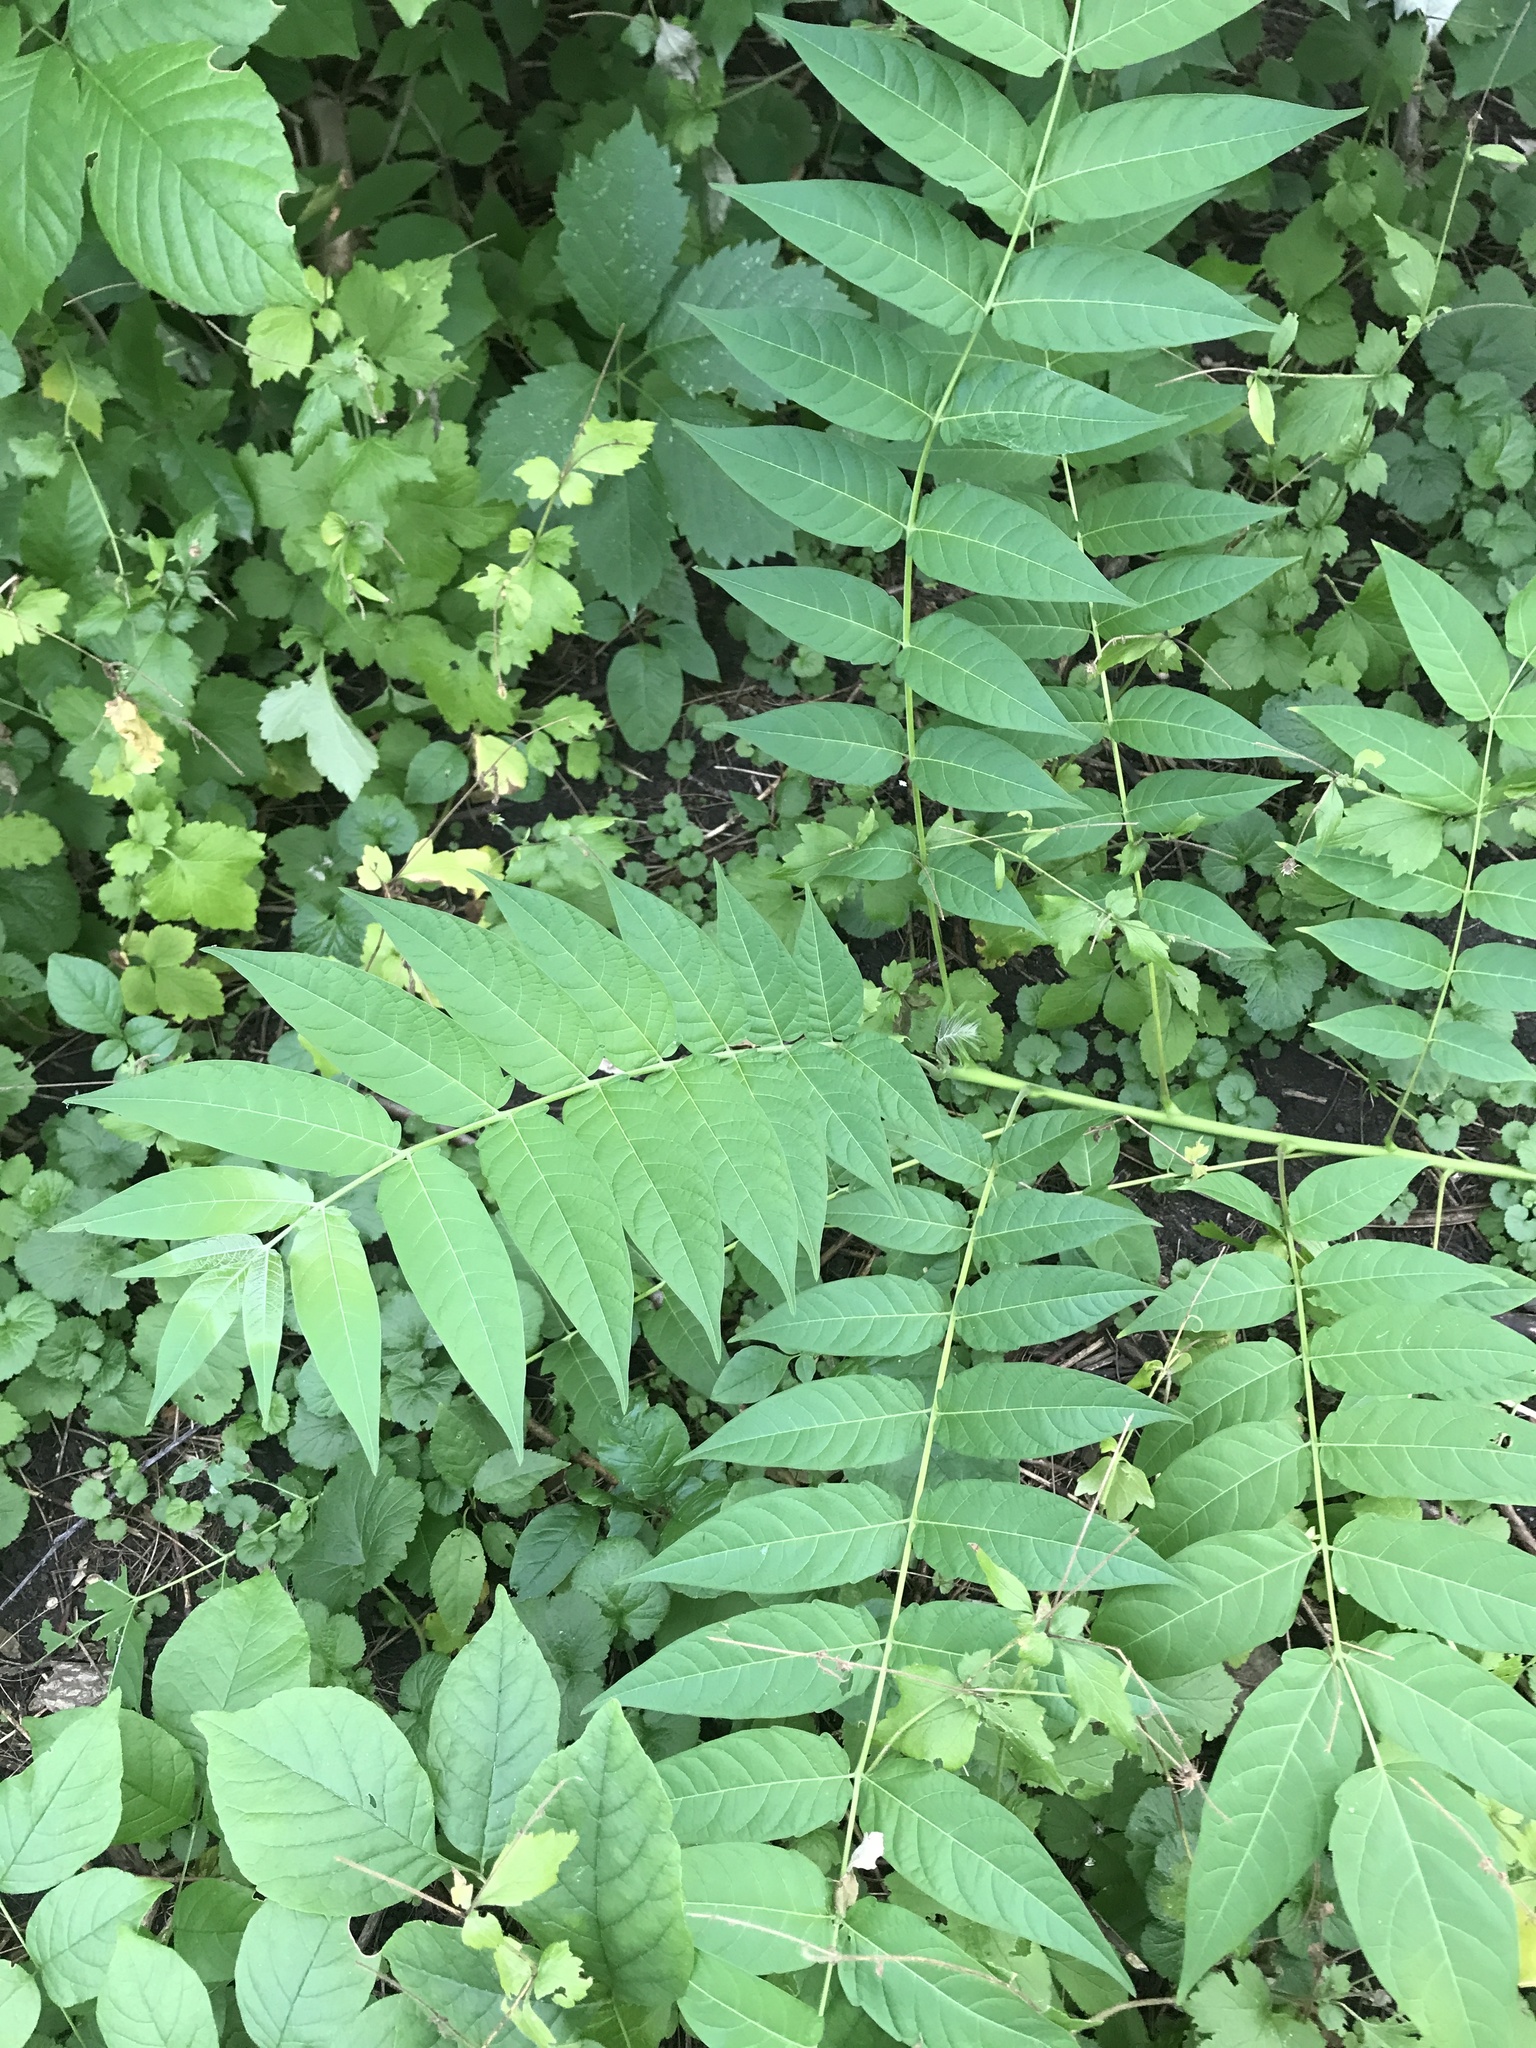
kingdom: Plantae
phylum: Tracheophyta
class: Magnoliopsida
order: Sapindales
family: Simaroubaceae
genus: Ailanthus
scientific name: Ailanthus altissima
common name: Tree-of-heaven
